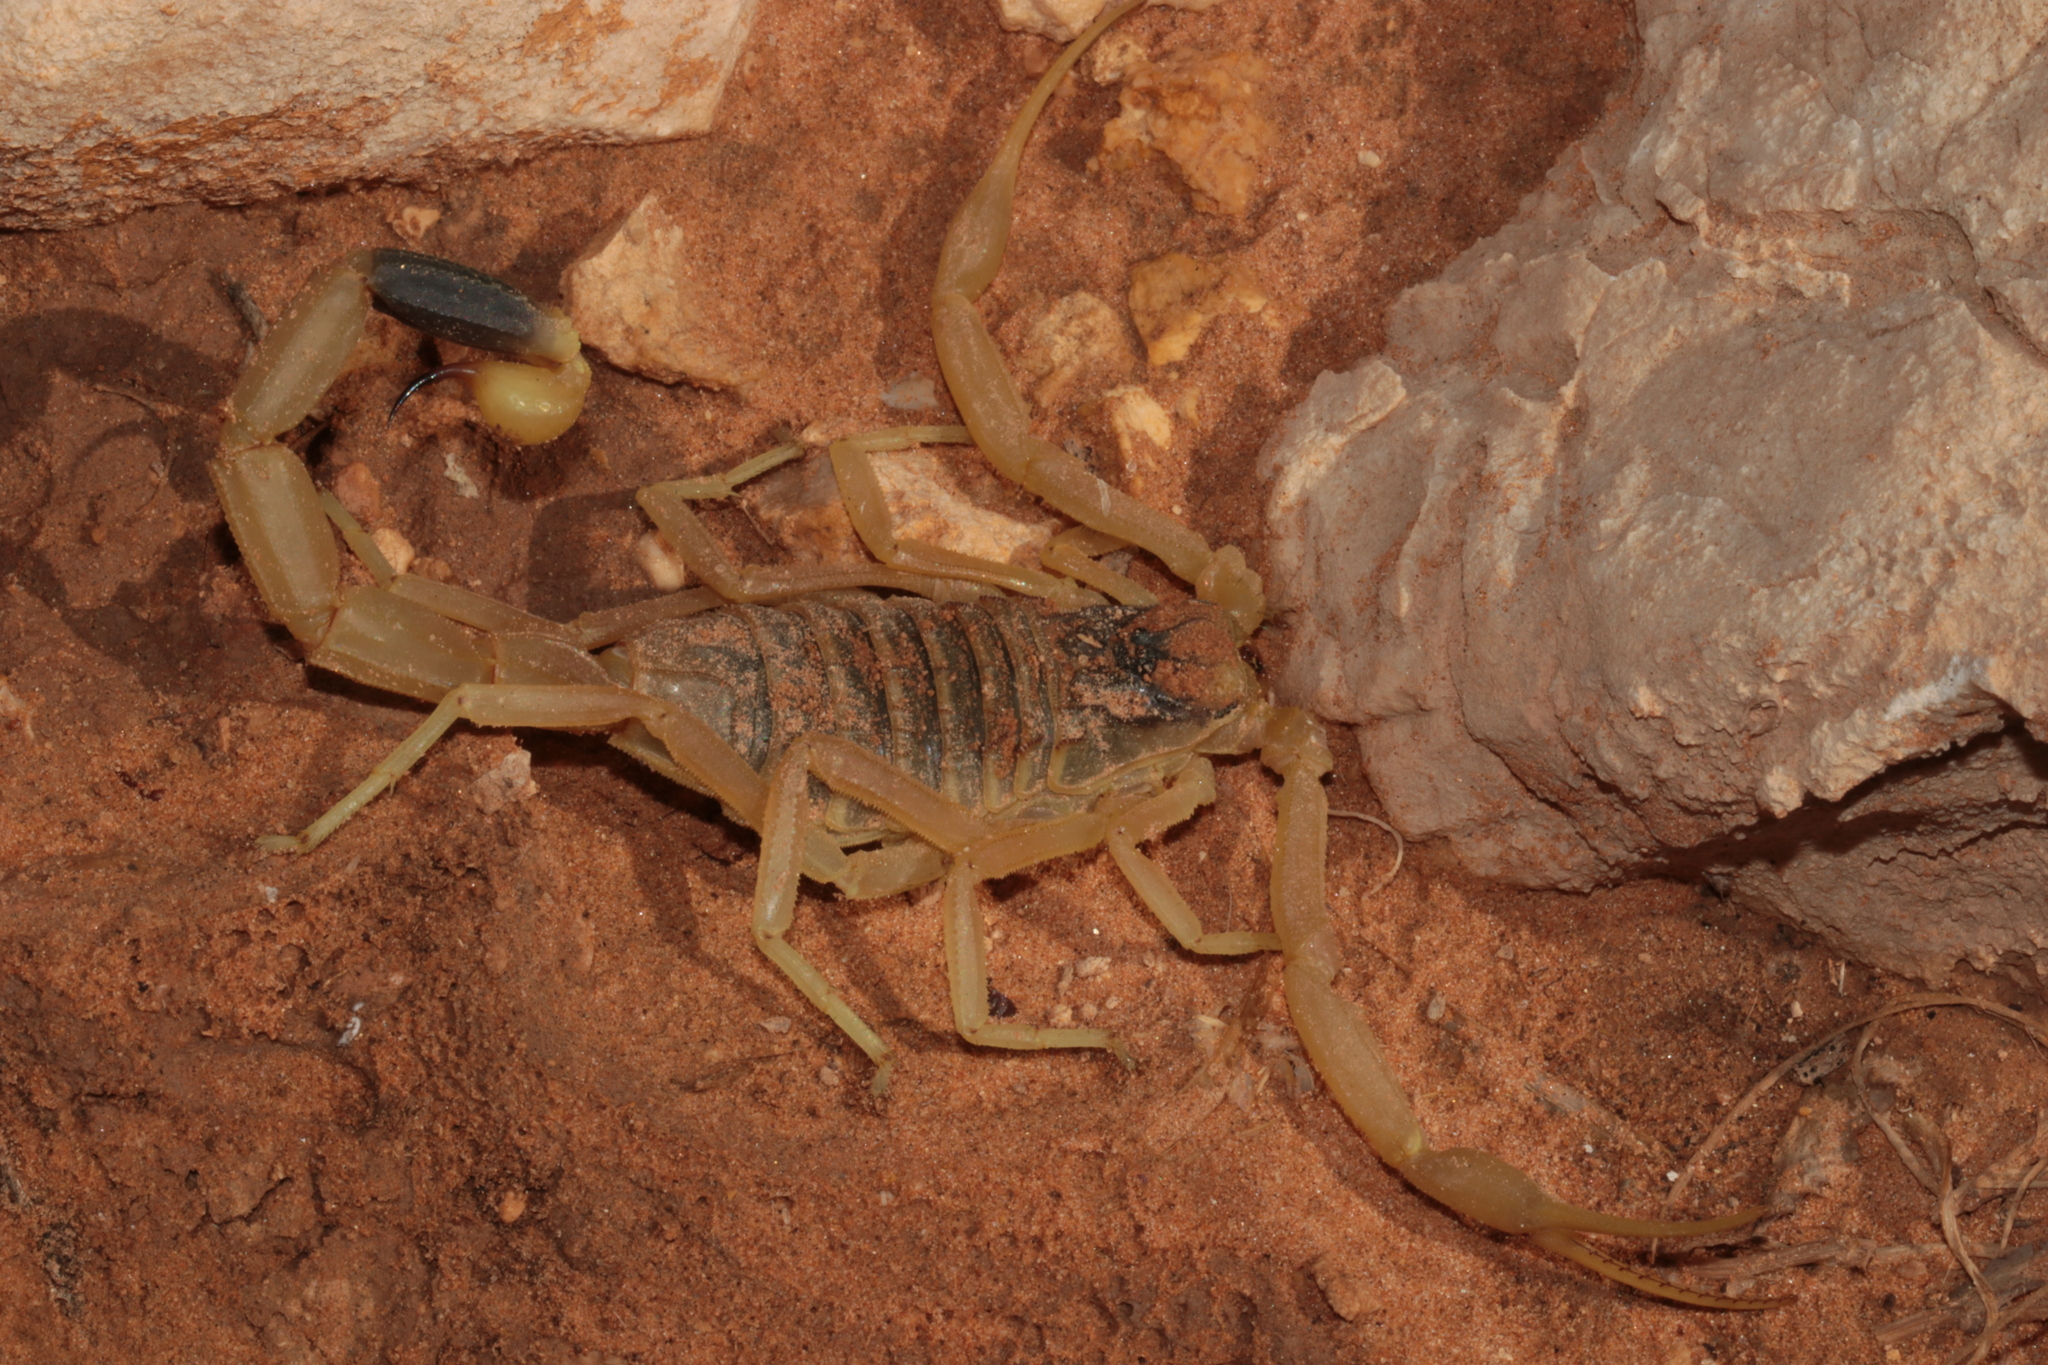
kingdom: Animalia
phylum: Arthropoda
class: Arachnida
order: Scorpiones
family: Buthidae
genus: Leiurus
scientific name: Leiurus arabicus
